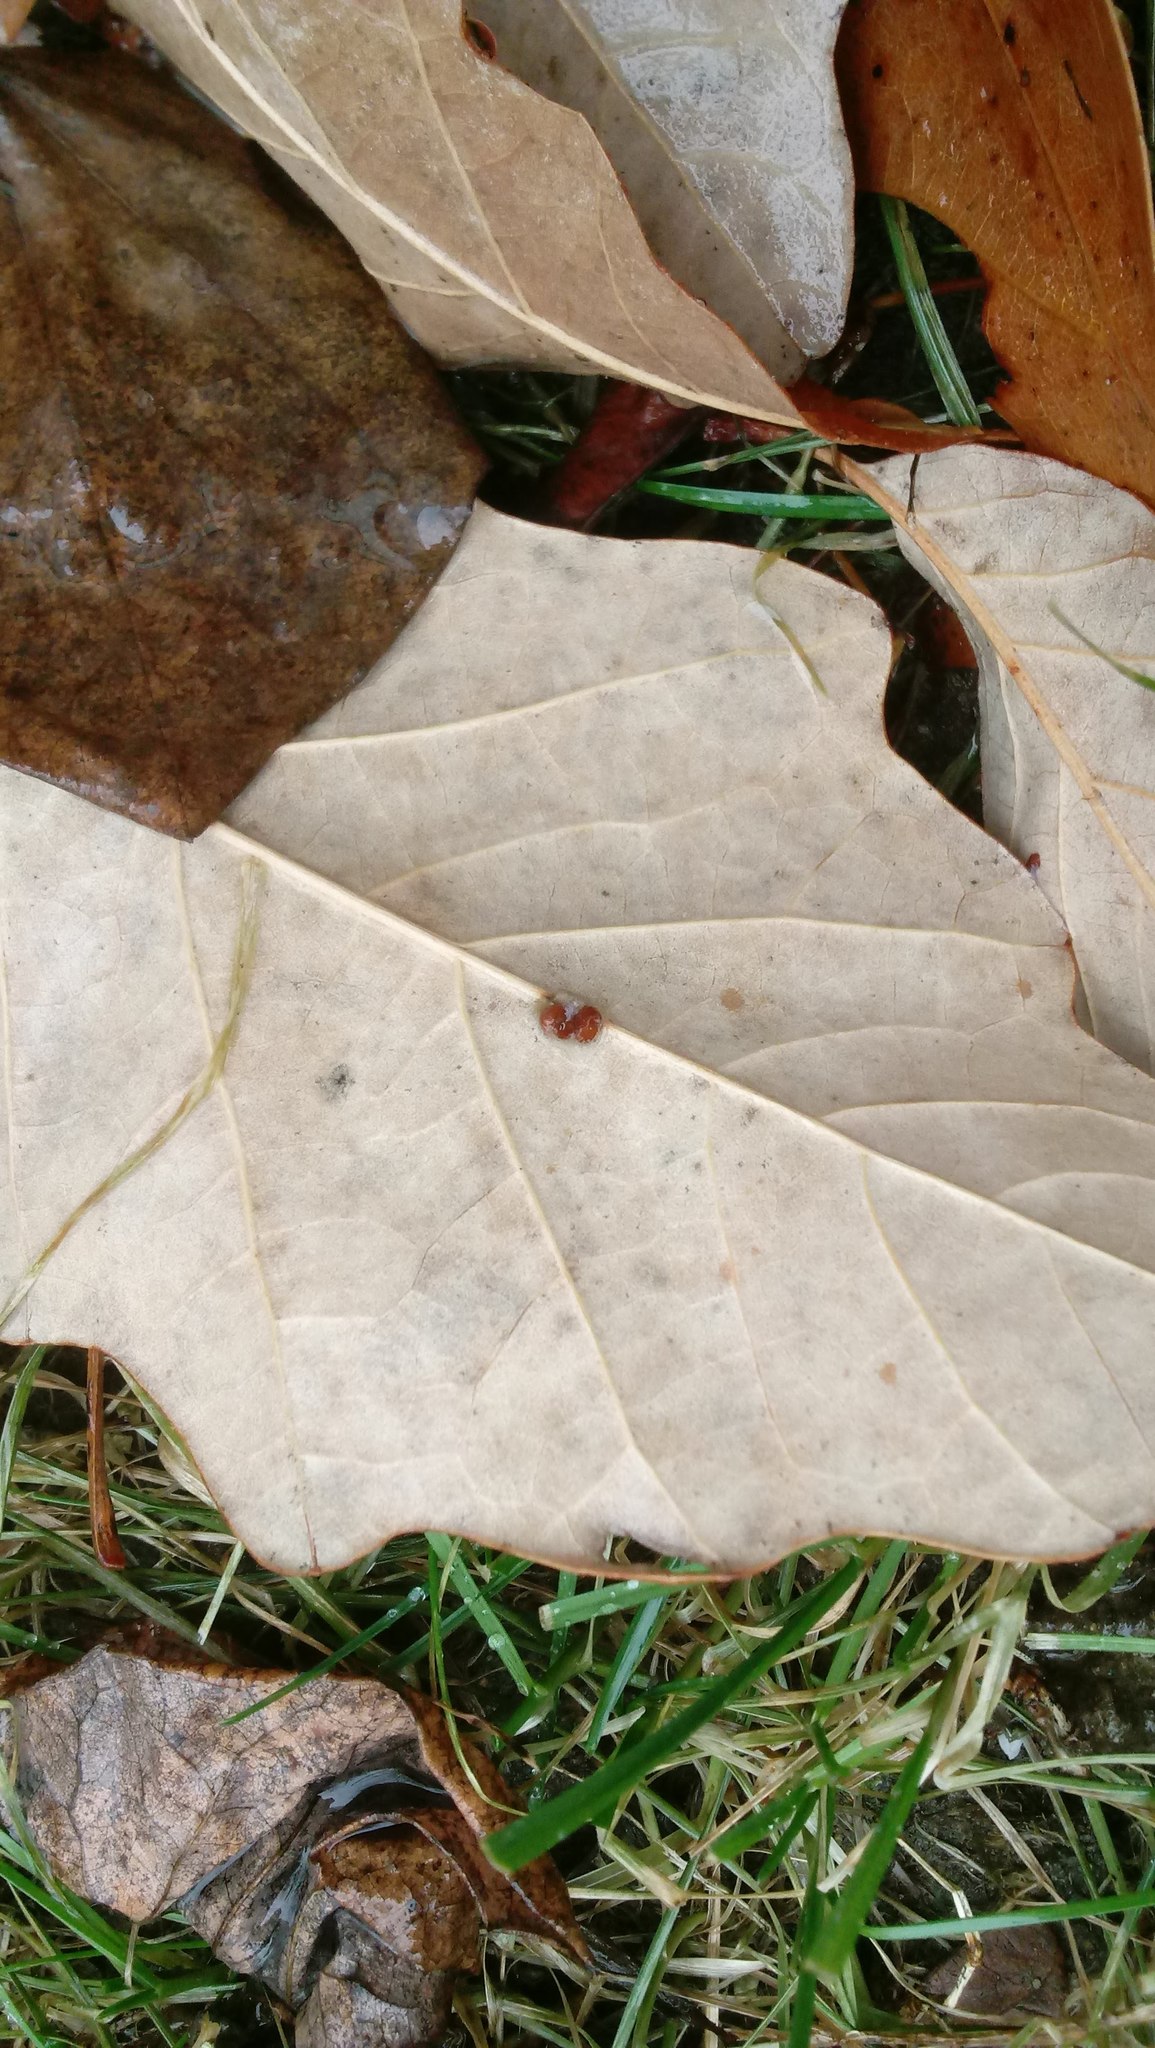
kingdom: Animalia
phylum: Arthropoda
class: Insecta
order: Hymenoptera
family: Cynipidae
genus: Andricus
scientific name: Andricus Druon ignotum
